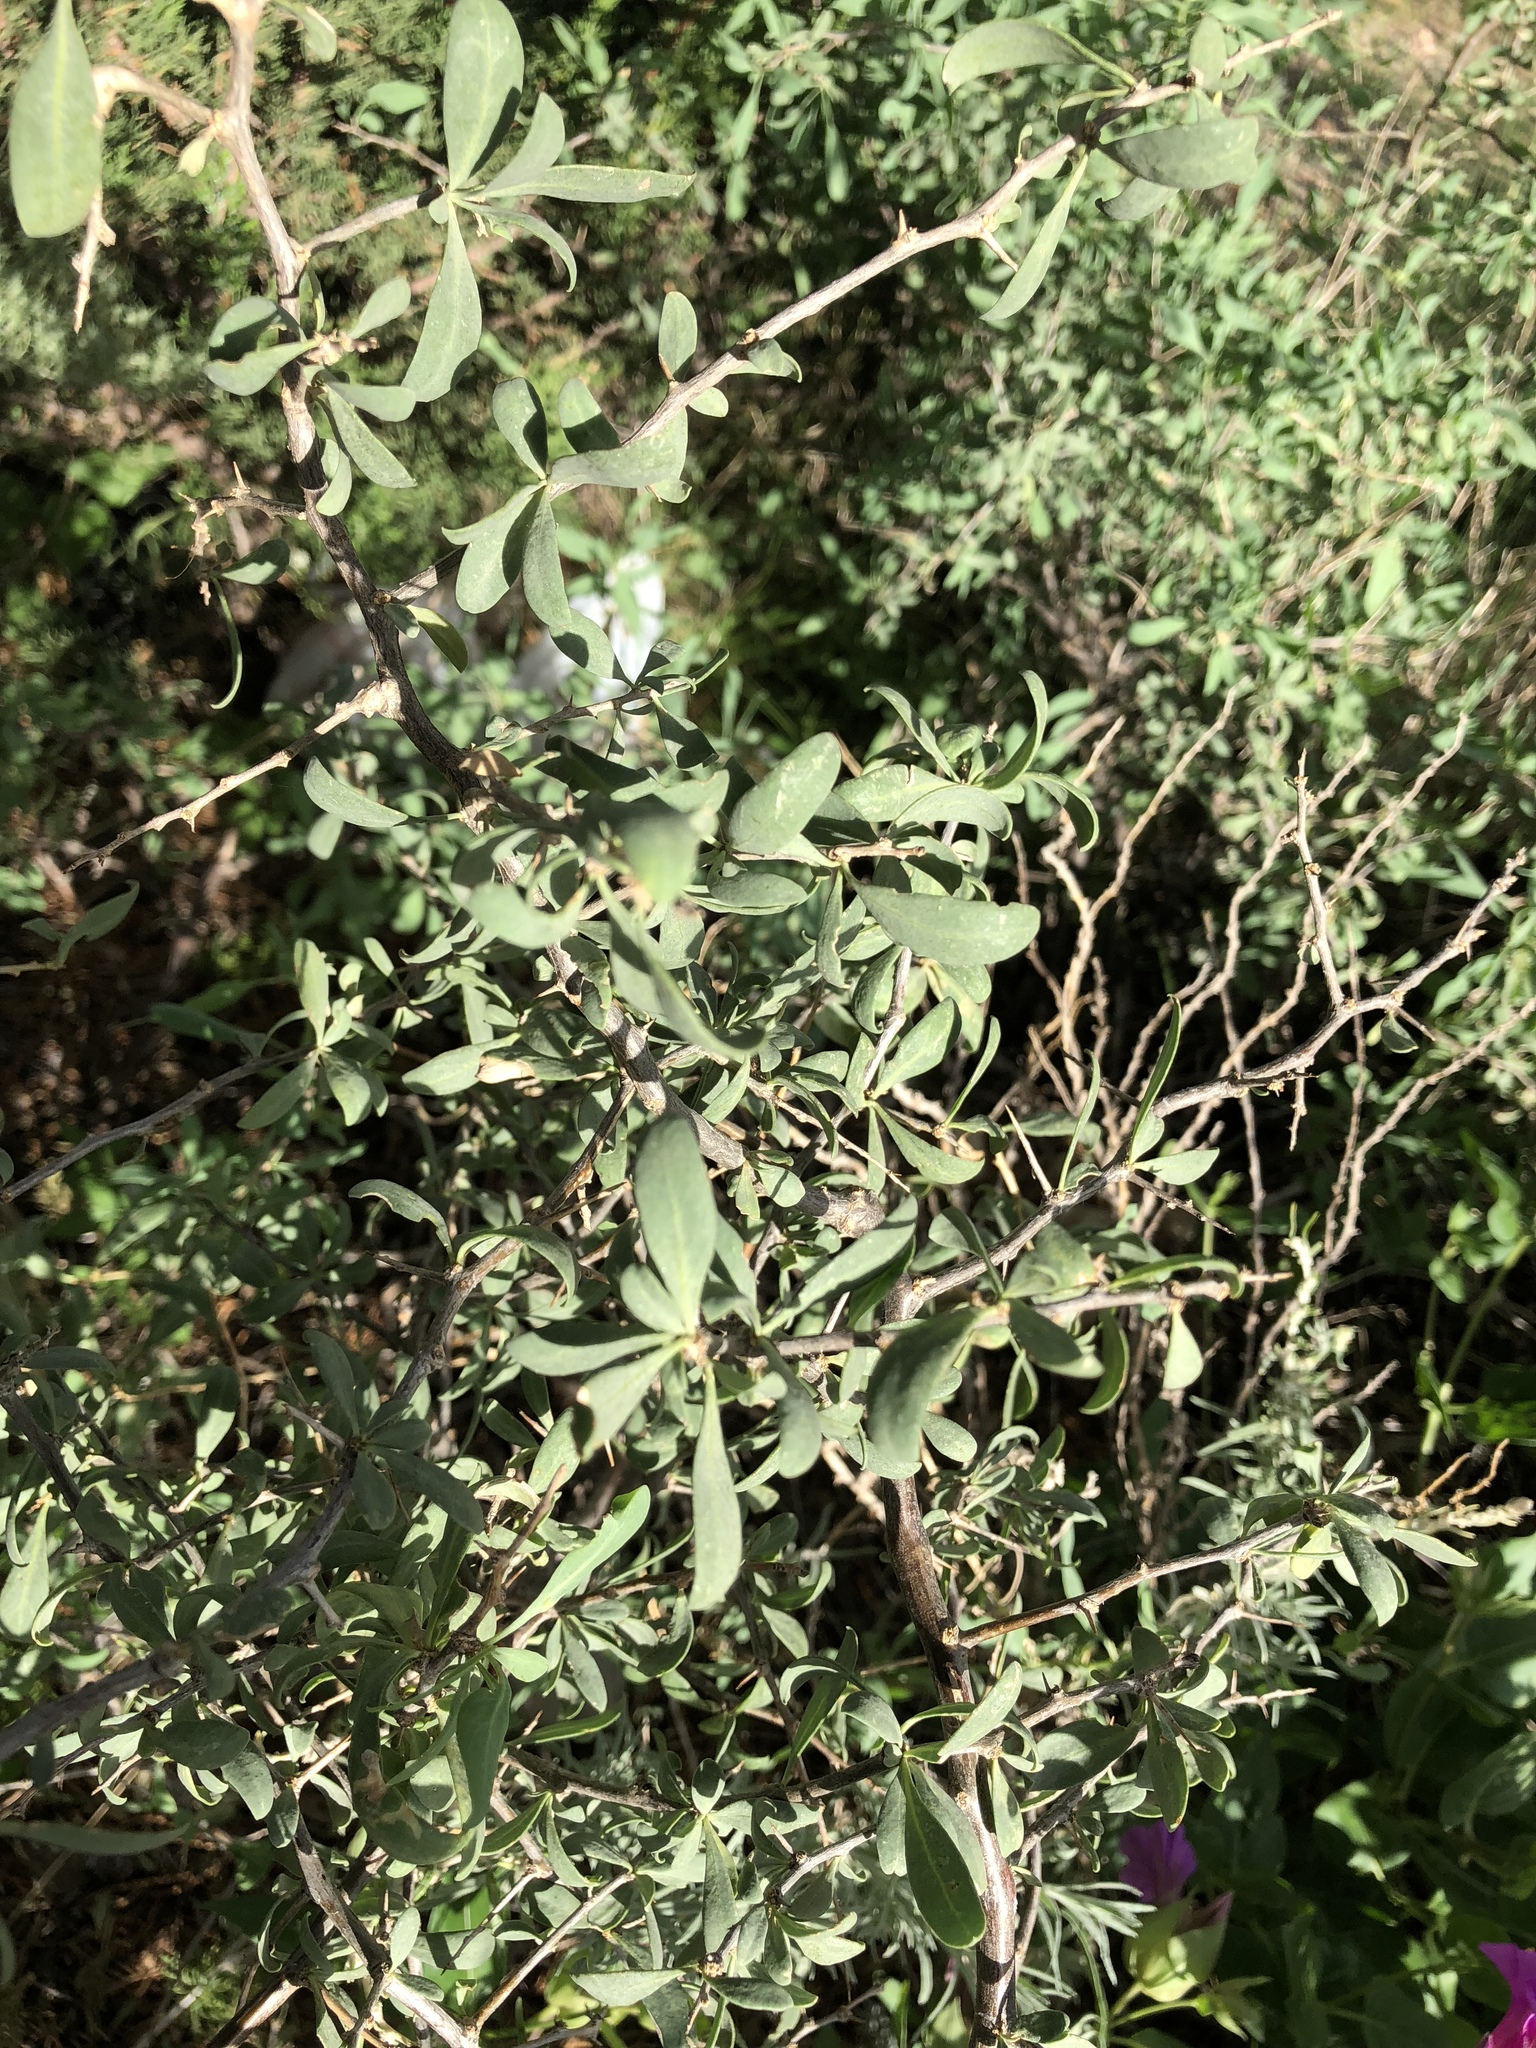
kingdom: Plantae
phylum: Tracheophyta
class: Magnoliopsida
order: Caryophyllales
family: Amaranthaceae
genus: Atriplex
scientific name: Atriplex canescens
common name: Four-wing saltbush
